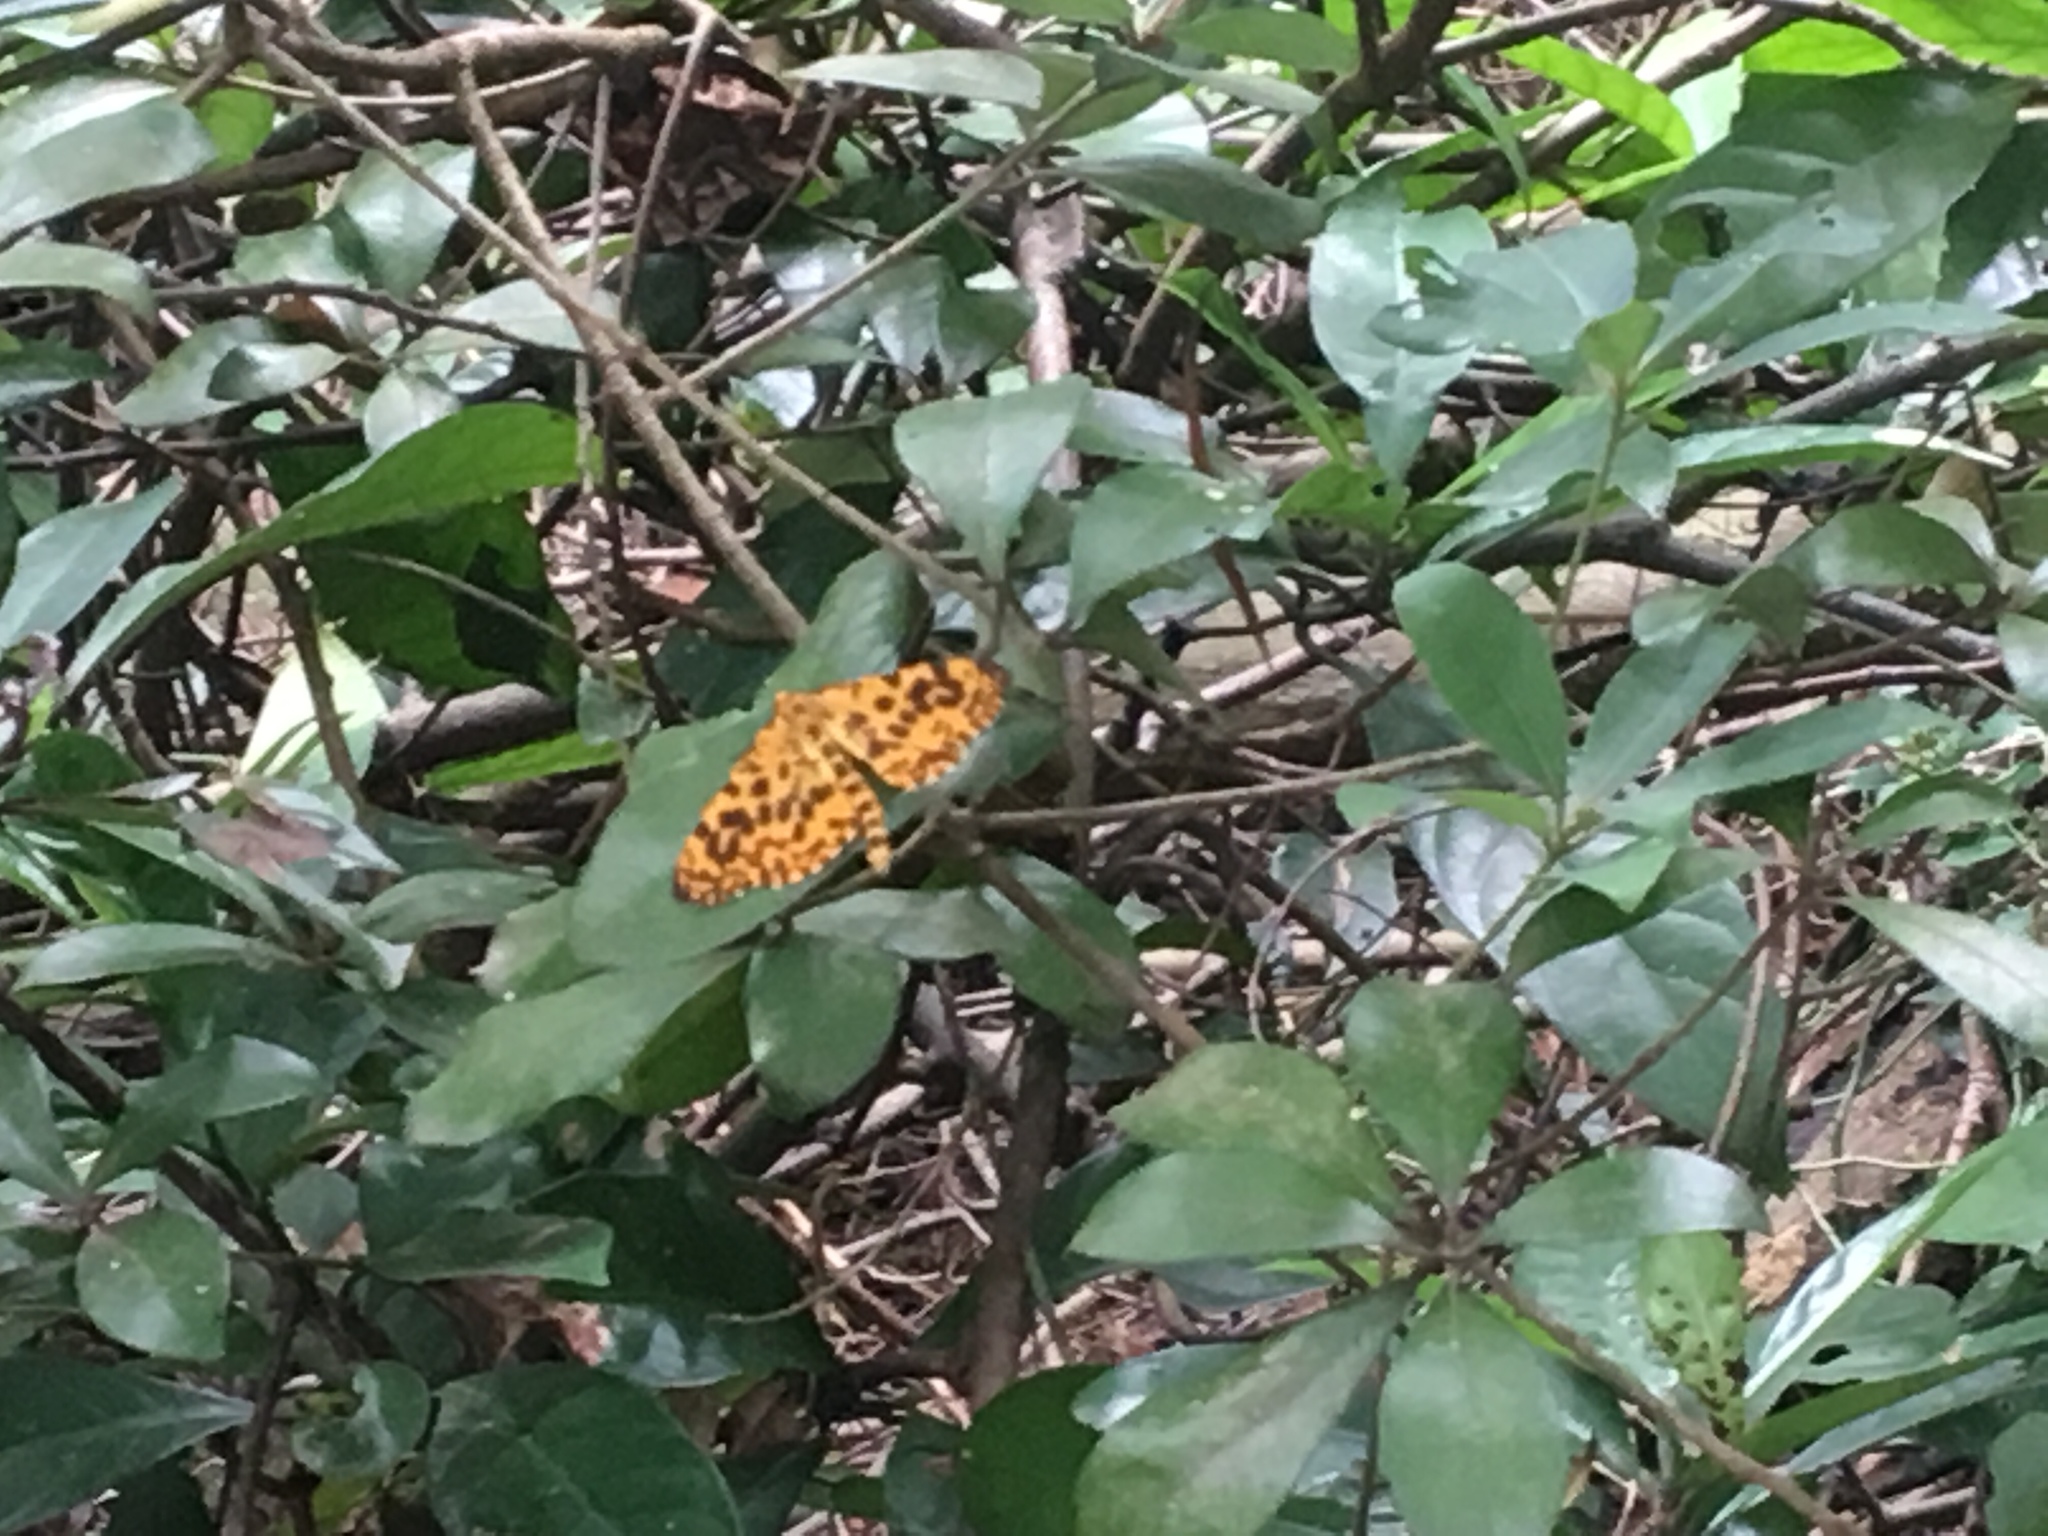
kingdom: Animalia
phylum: Arthropoda
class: Insecta
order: Lepidoptera
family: Geometridae
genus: Obeidia
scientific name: Obeidia Epobeidia tigrata
